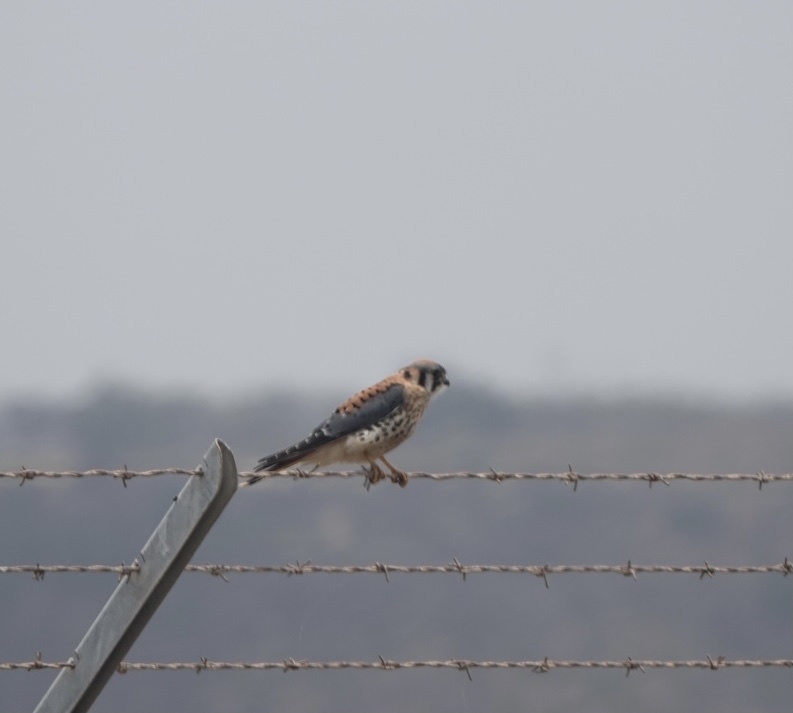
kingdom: Animalia
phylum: Chordata
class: Aves
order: Falconiformes
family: Falconidae
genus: Falco
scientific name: Falco sparverius
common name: American kestrel
